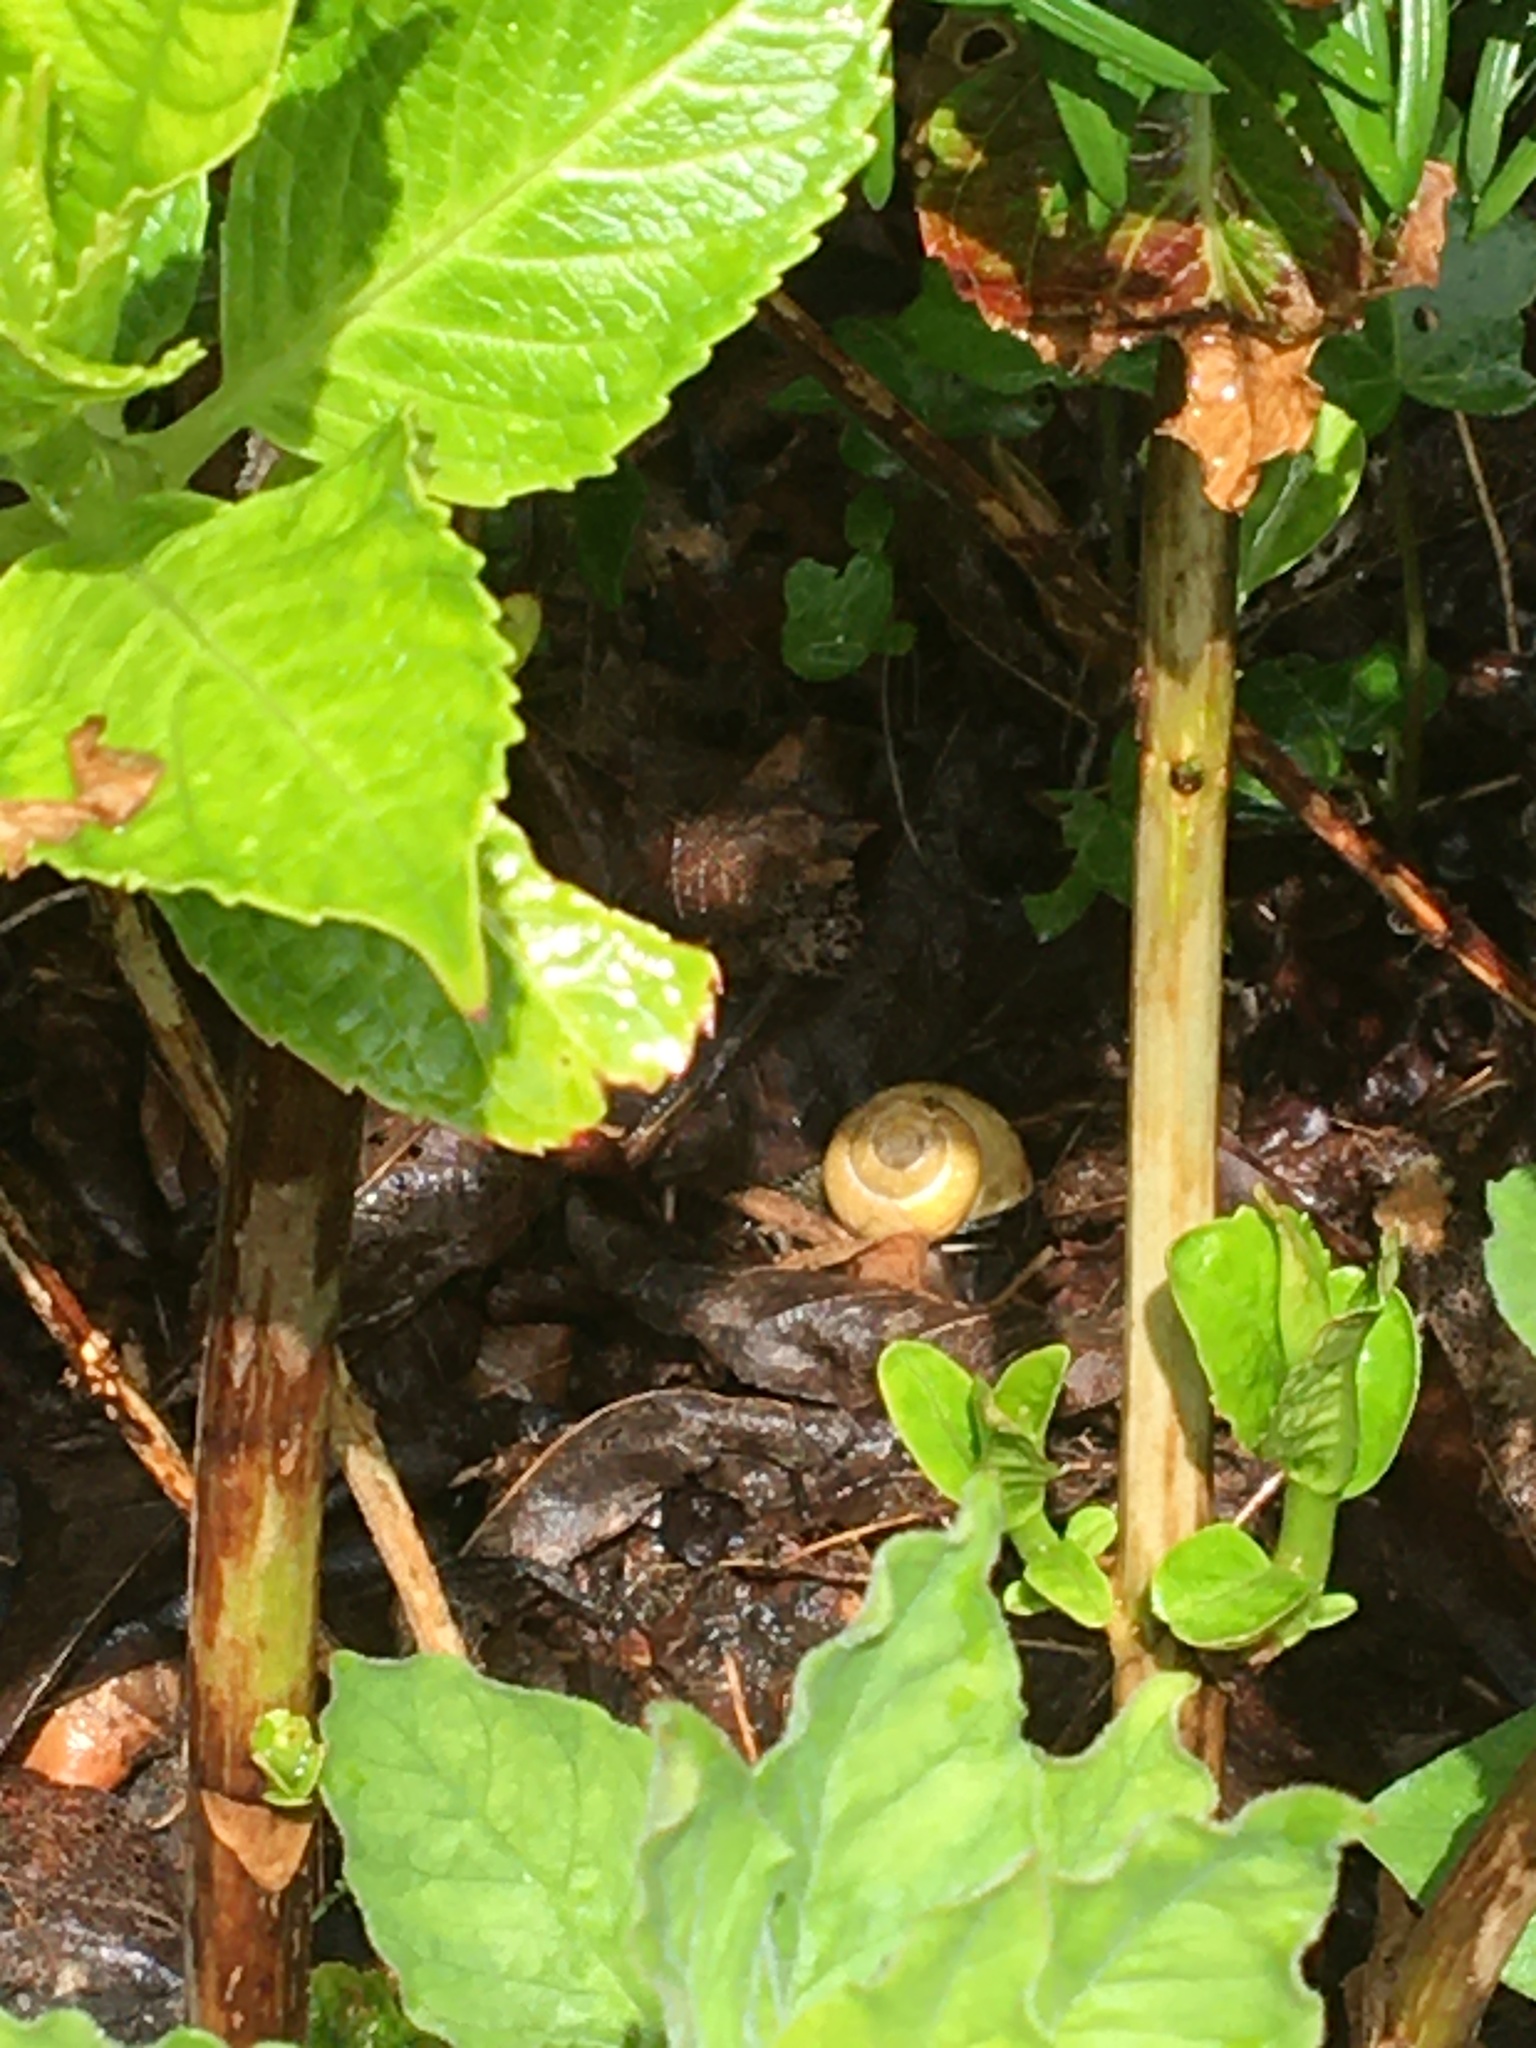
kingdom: Animalia
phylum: Mollusca
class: Gastropoda
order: Stylommatophora
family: Helicidae
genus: Cepaea
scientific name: Cepaea nemoralis
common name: Grovesnail
